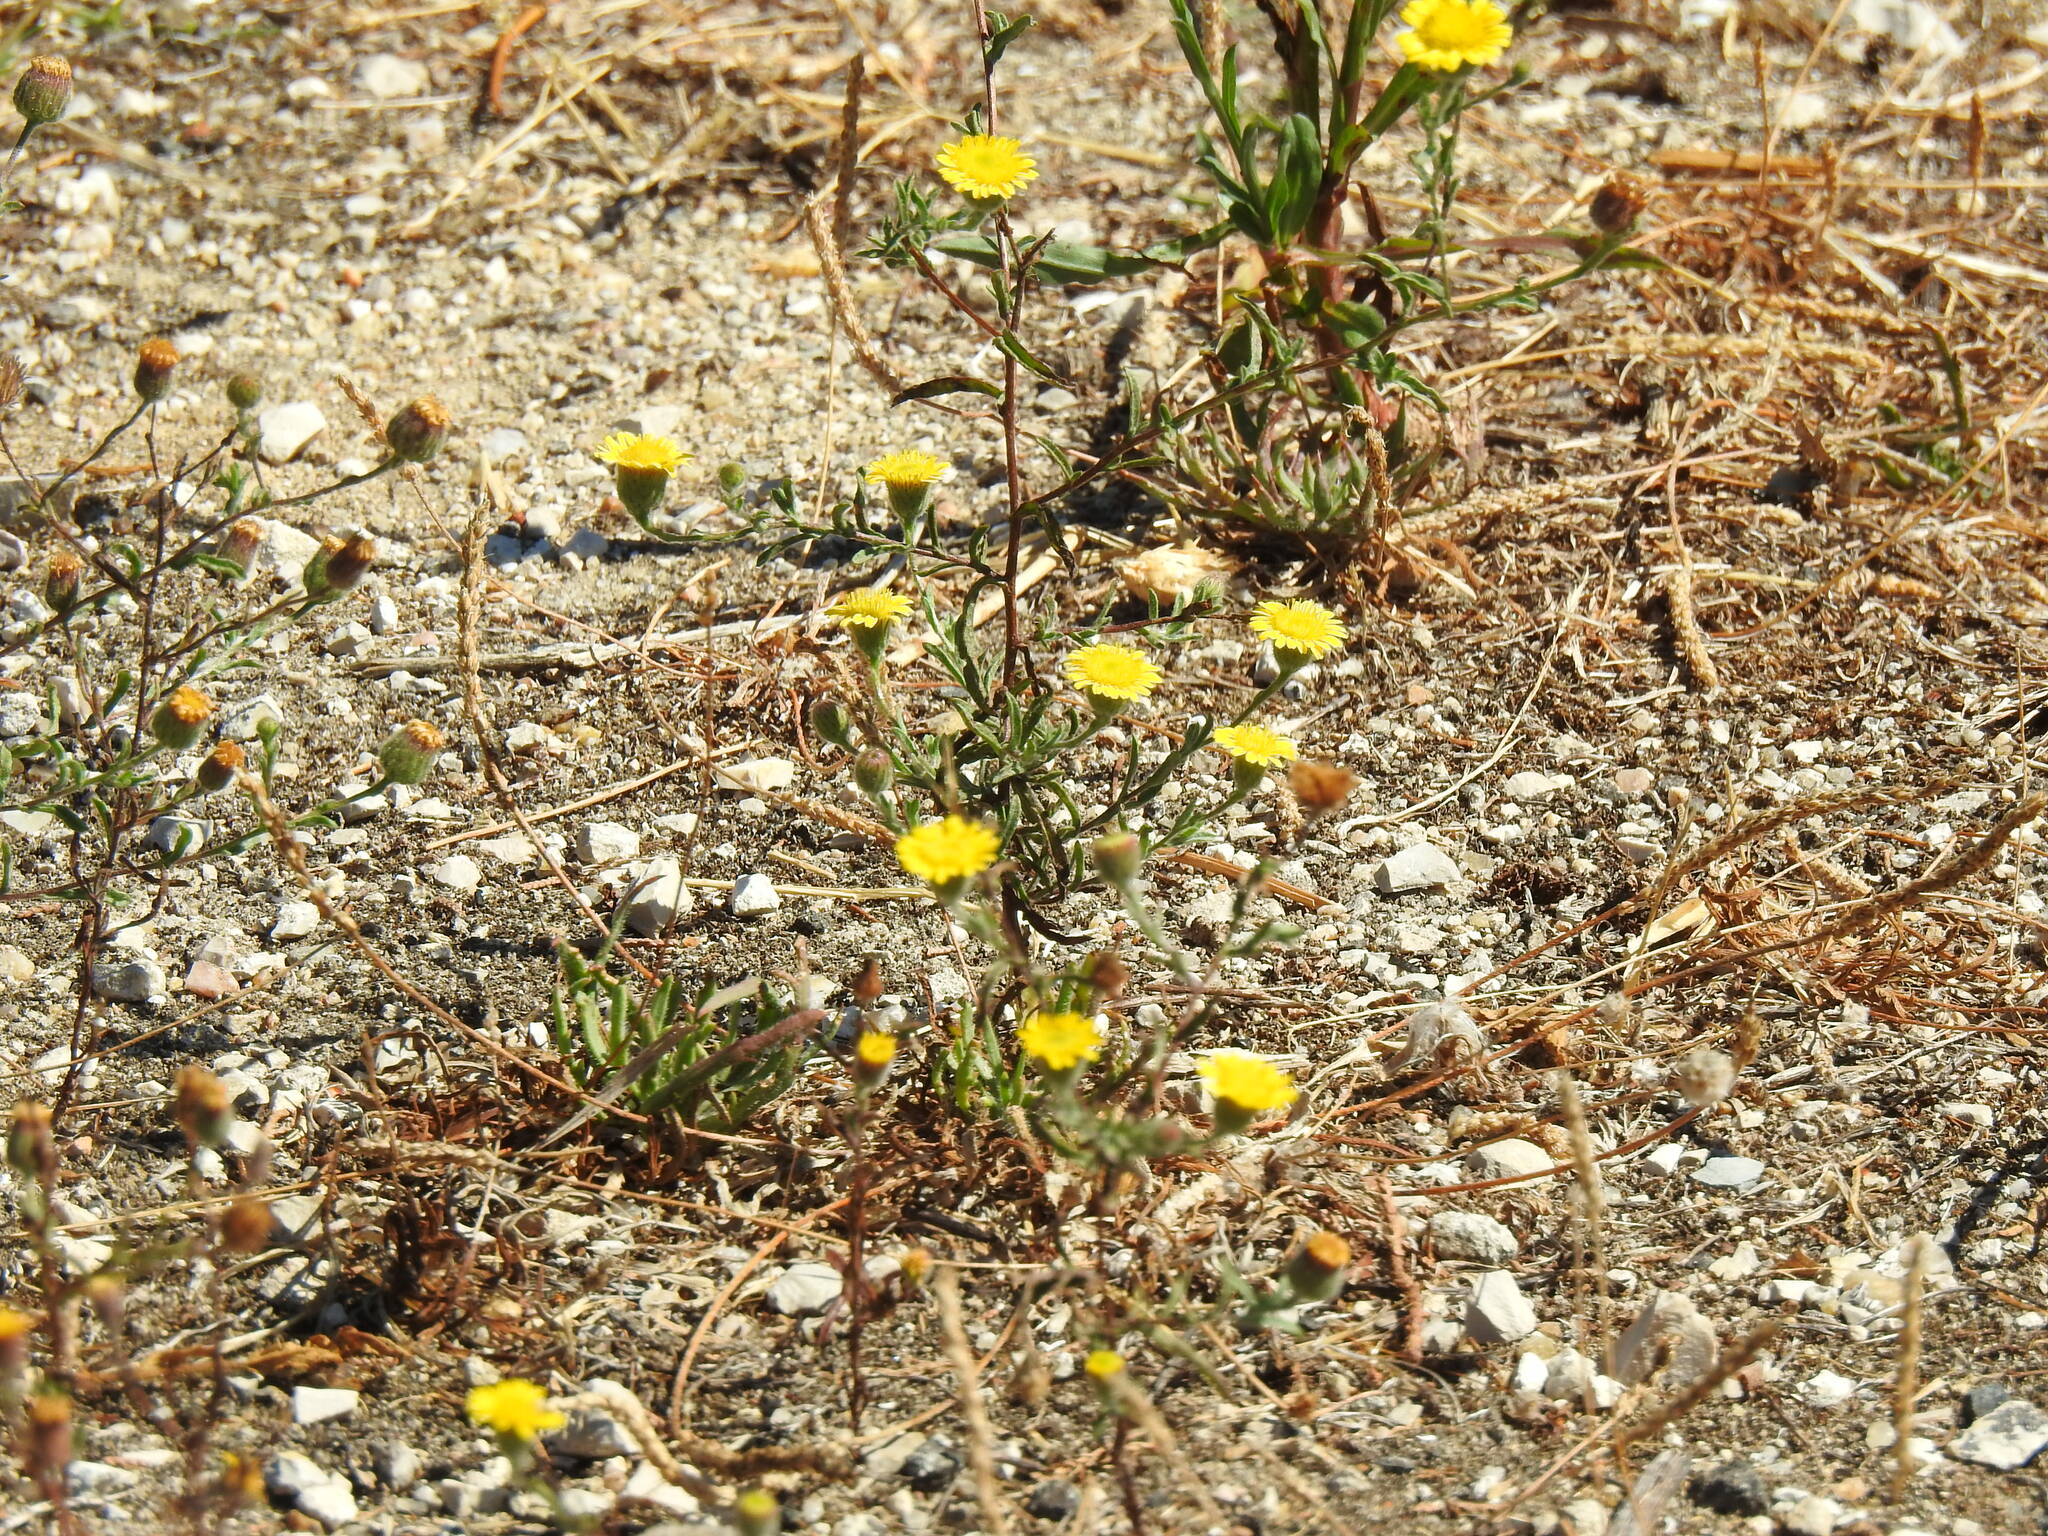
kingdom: Plantae
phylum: Tracheophyta
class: Magnoliopsida
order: Asterales
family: Asteraceae
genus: Pulicaria
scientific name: Pulicaria paludosa
